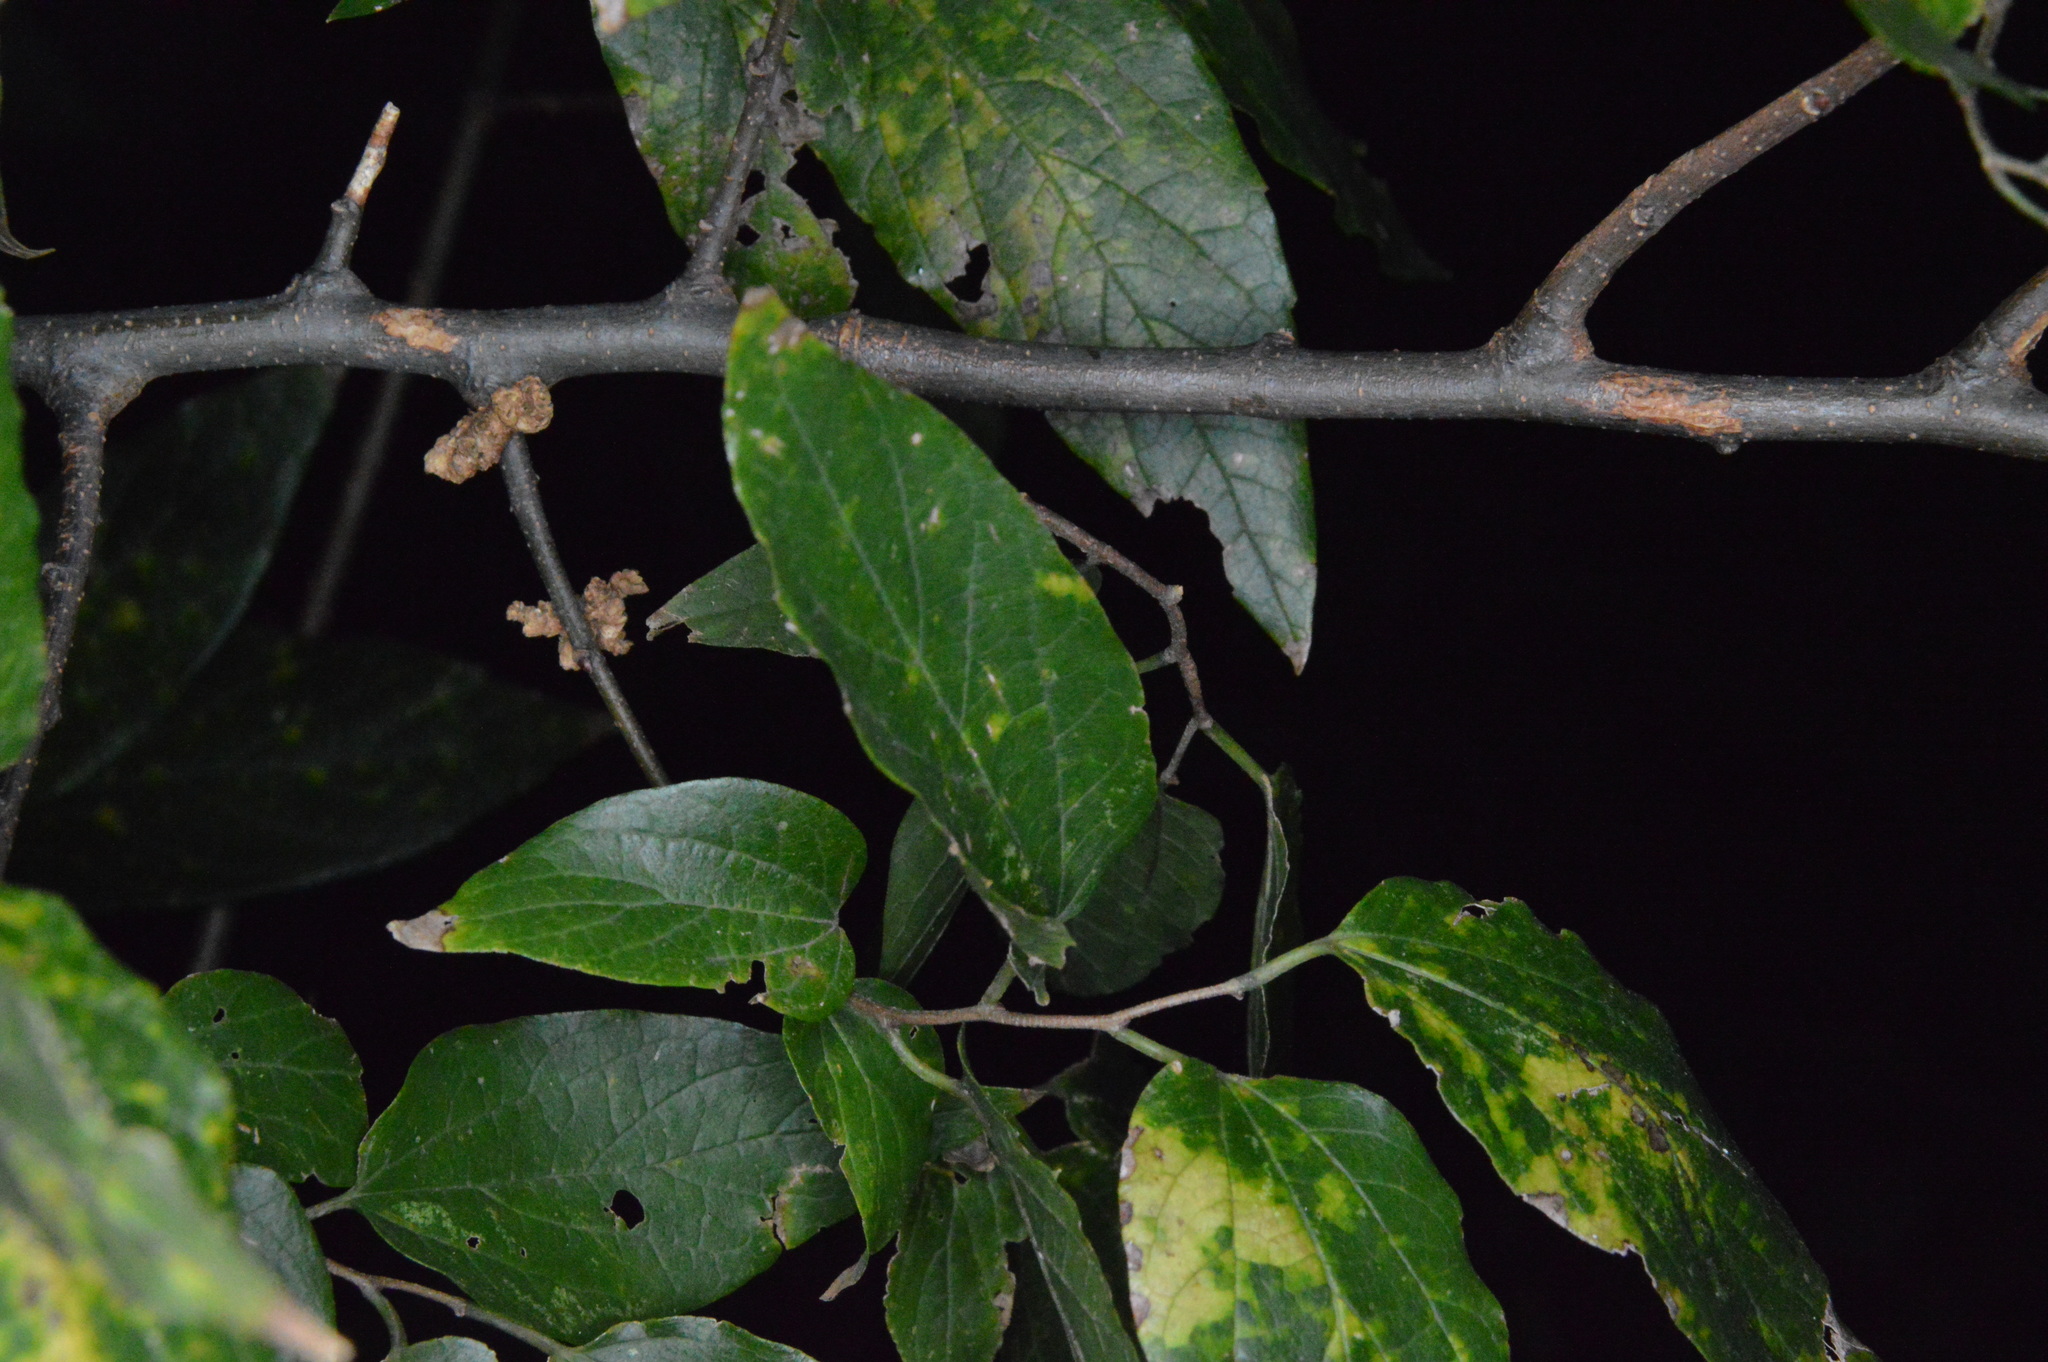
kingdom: Animalia
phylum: Arthropoda
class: Arachnida
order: Trombidiformes
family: Eriophyidae
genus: Aceria
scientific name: Aceria
